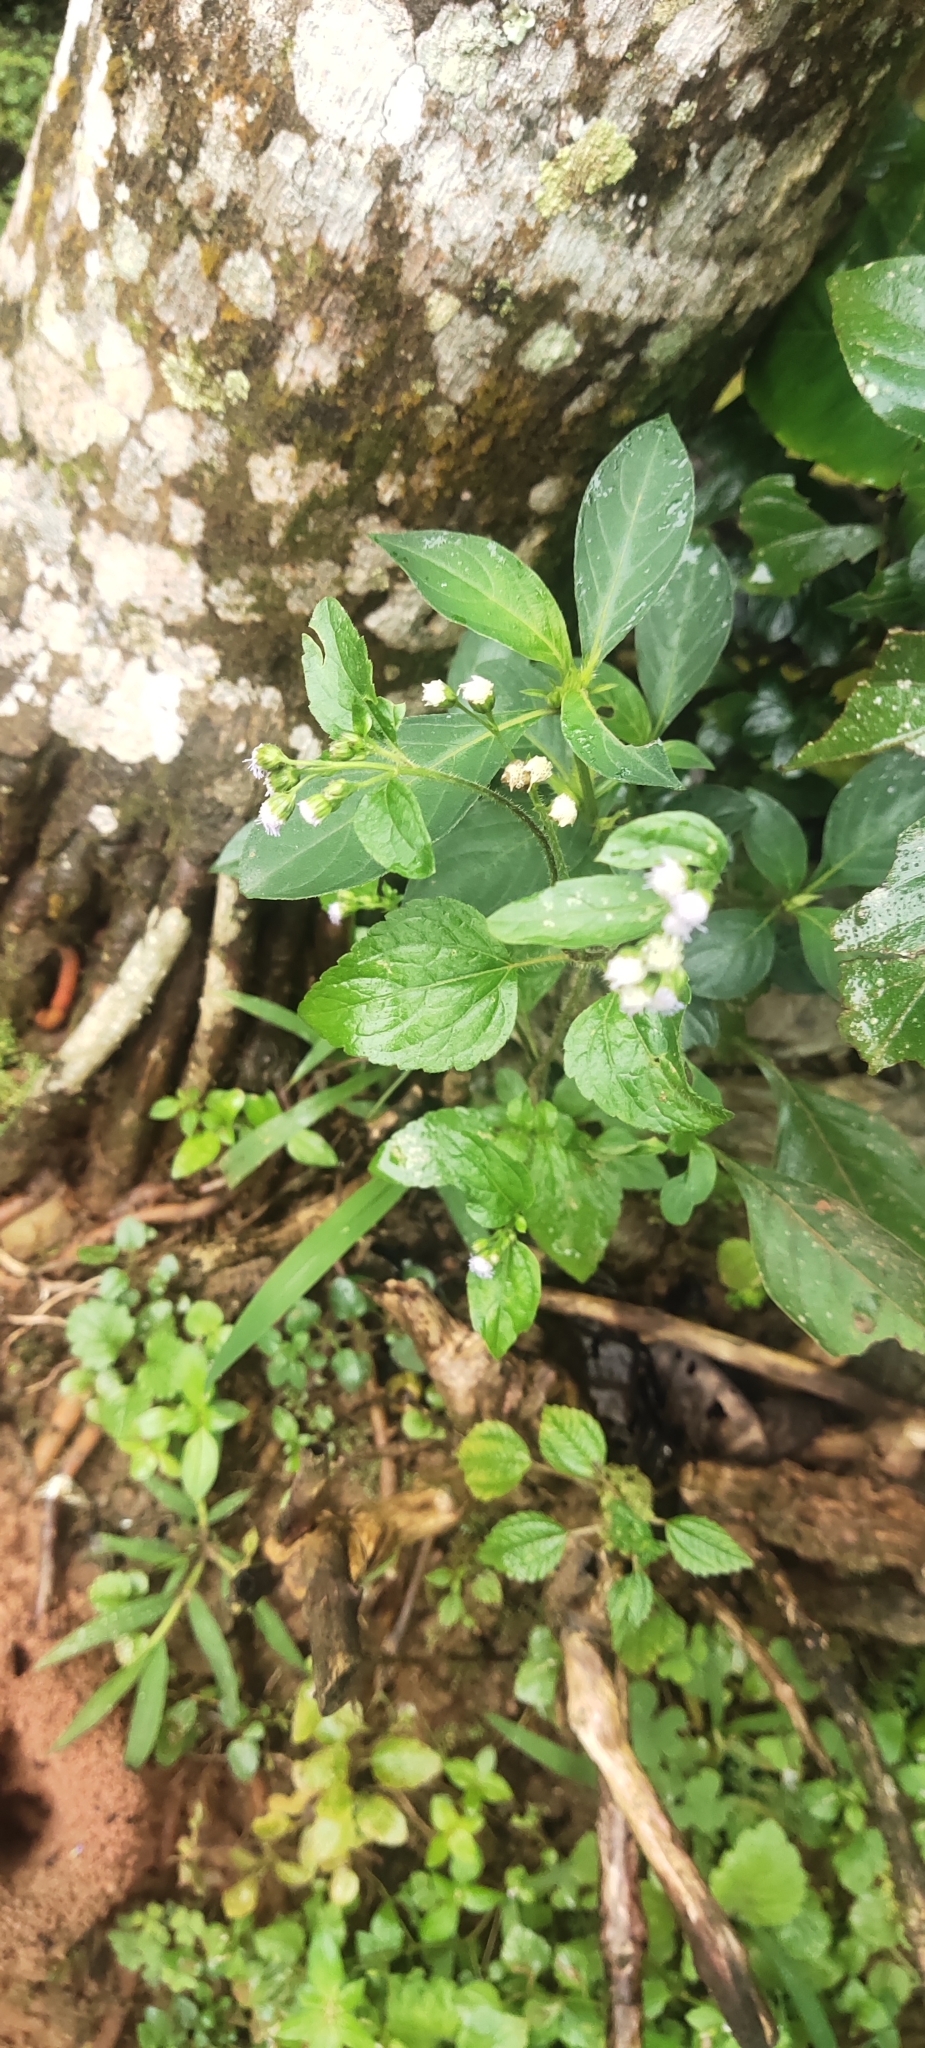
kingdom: Plantae
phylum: Tracheophyta
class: Magnoliopsida
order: Asterales
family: Asteraceae
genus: Ageratum
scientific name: Ageratum conyzoides
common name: Tropical whiteweed
